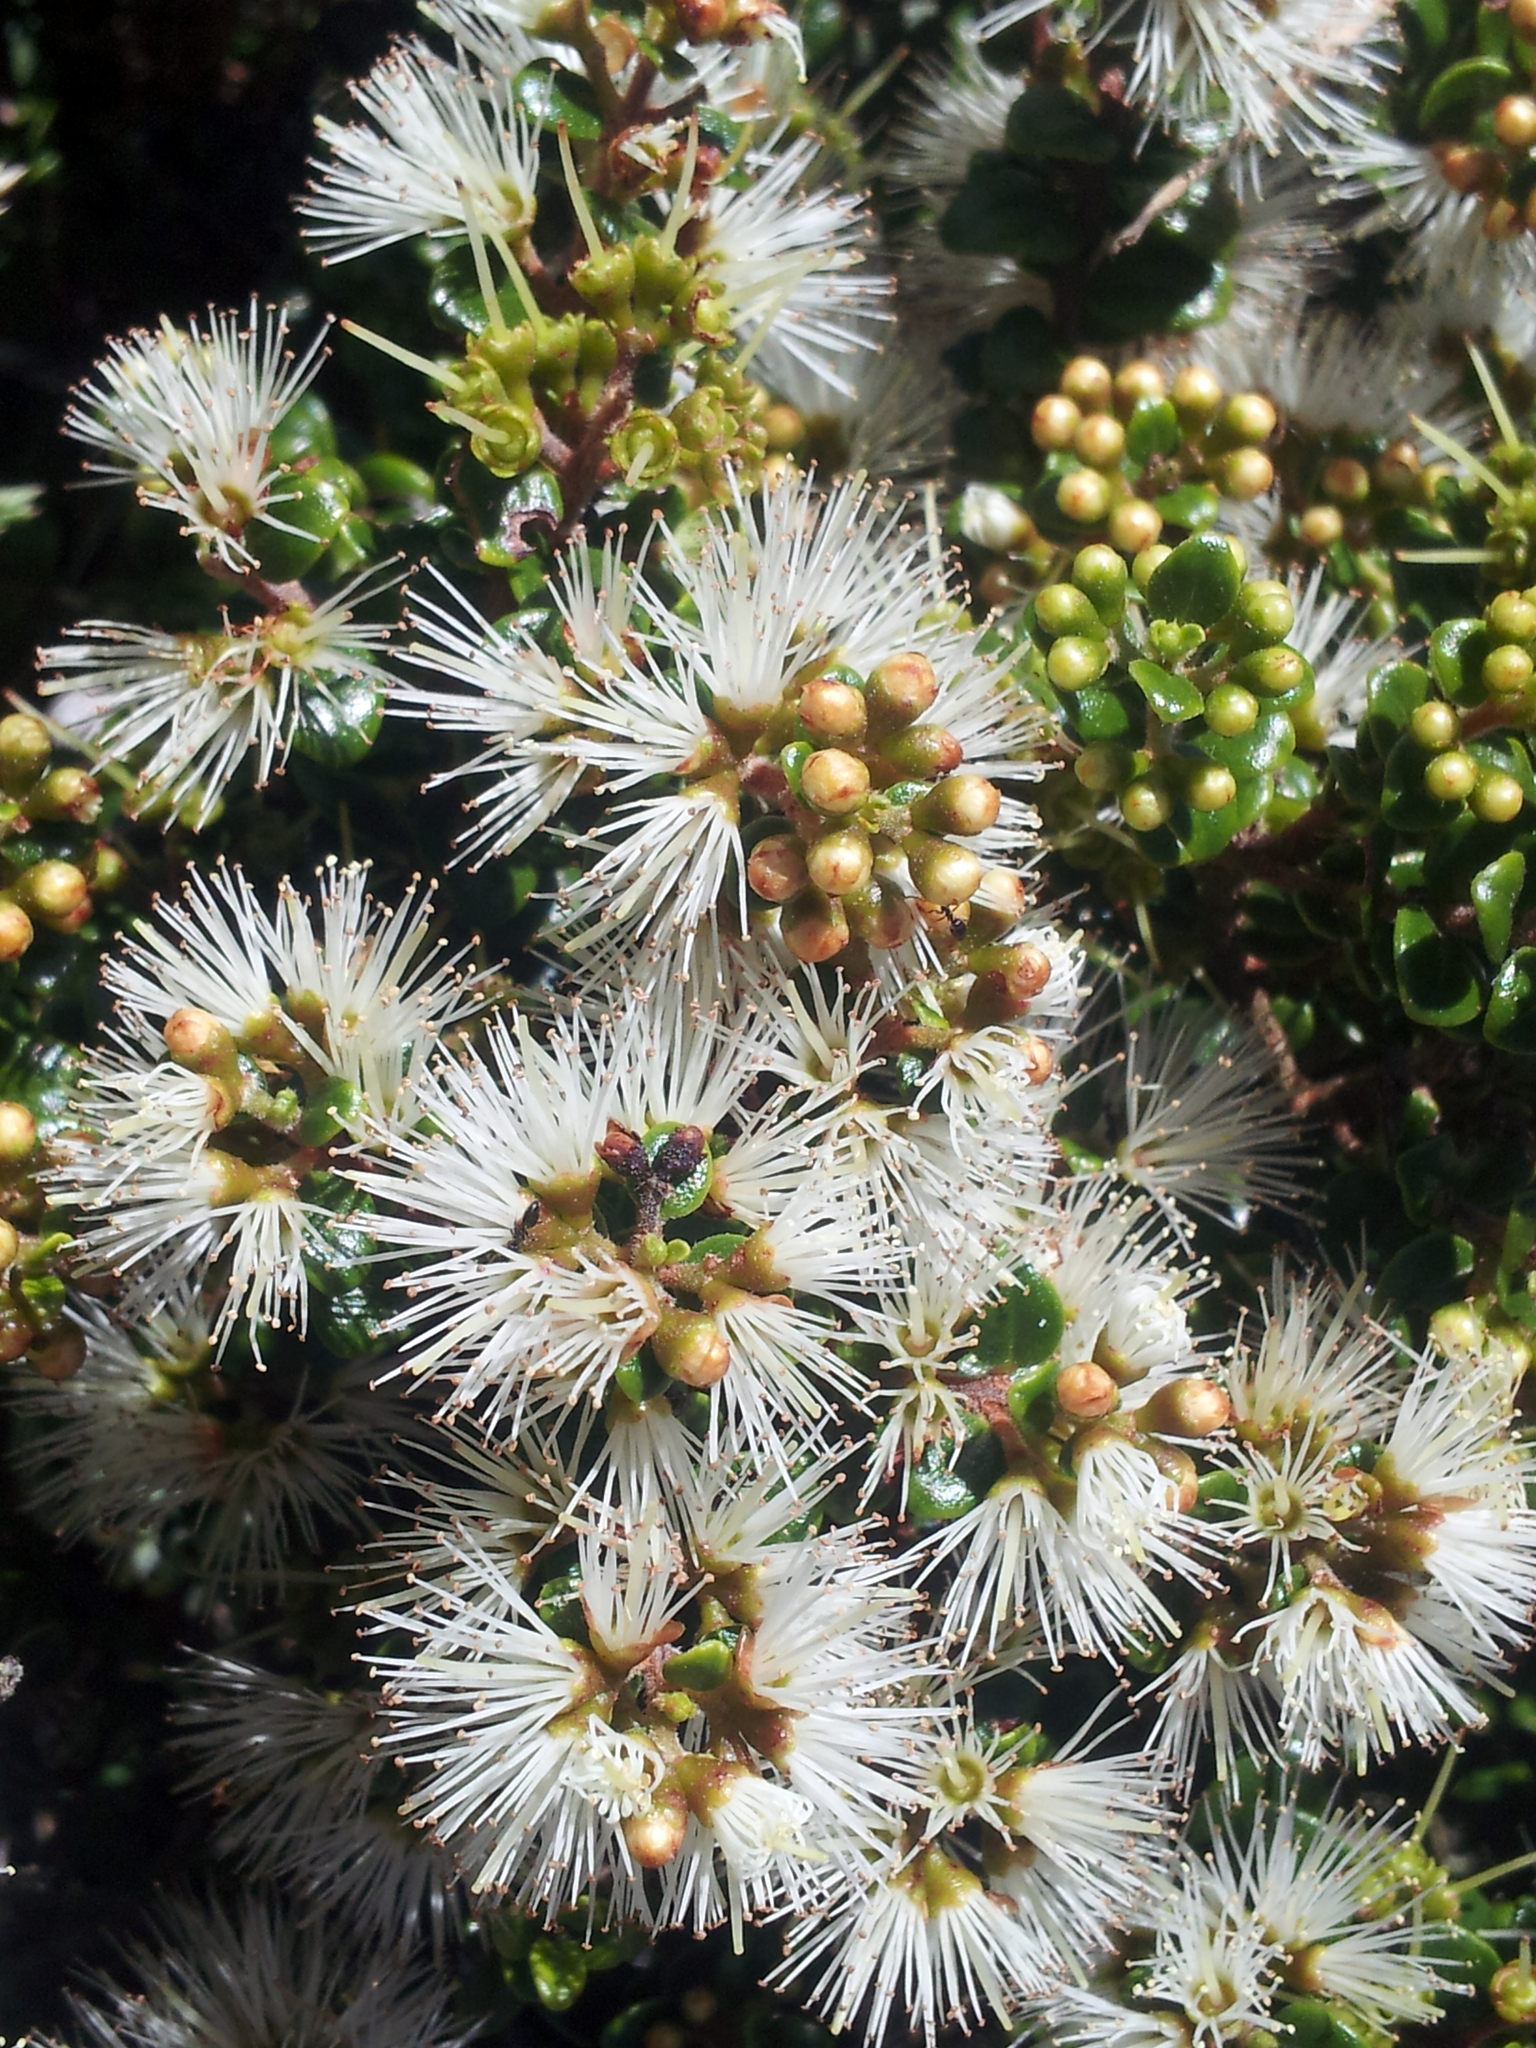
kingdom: Plantae
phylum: Tracheophyta
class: Magnoliopsida
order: Myrtales
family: Myrtaceae
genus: Metrosideros
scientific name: Metrosideros perforata
